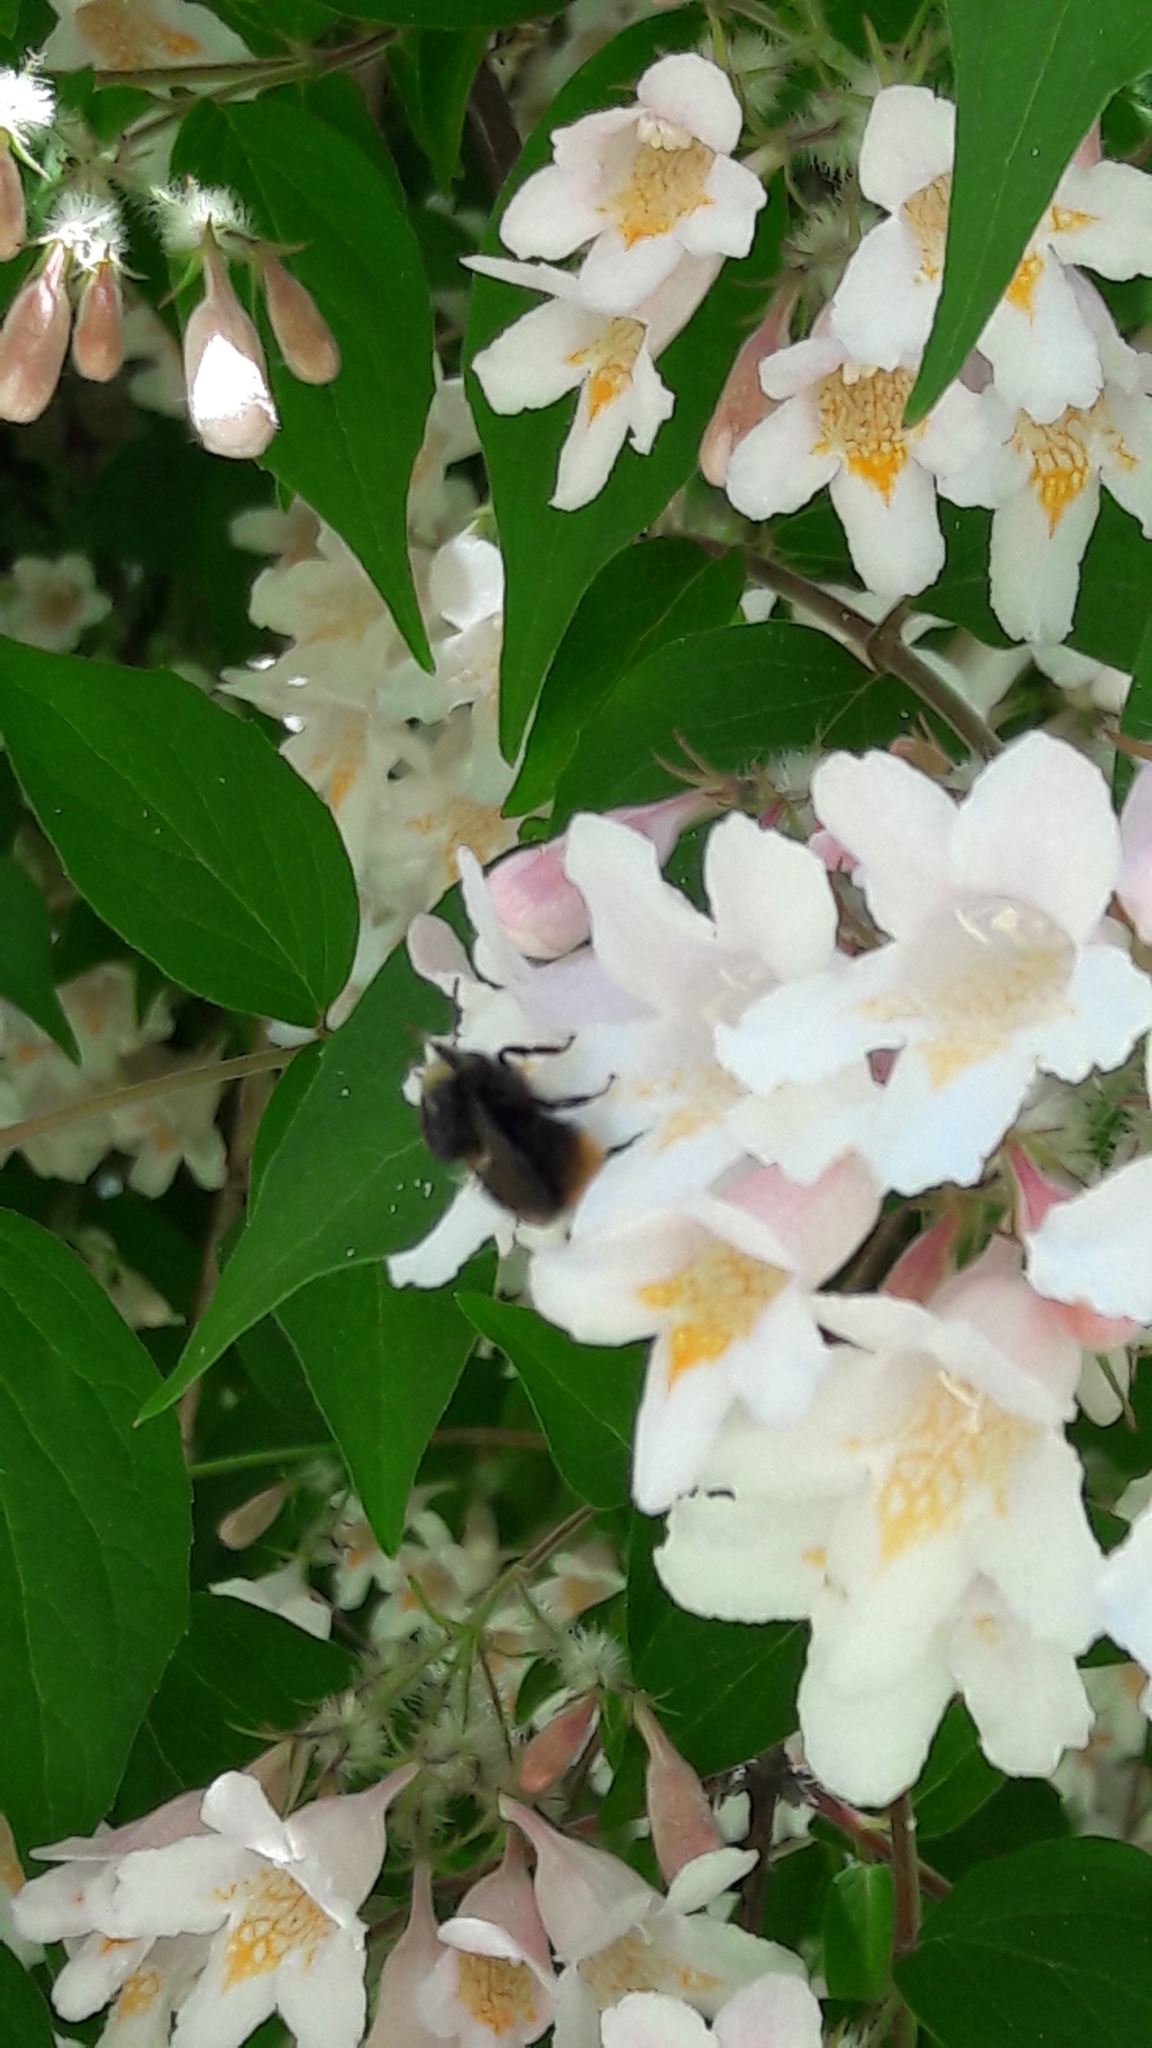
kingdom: Animalia
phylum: Arthropoda
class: Insecta
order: Hymenoptera
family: Apidae
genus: Bombus
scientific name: Bombus pratorum
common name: Early humble-bee
